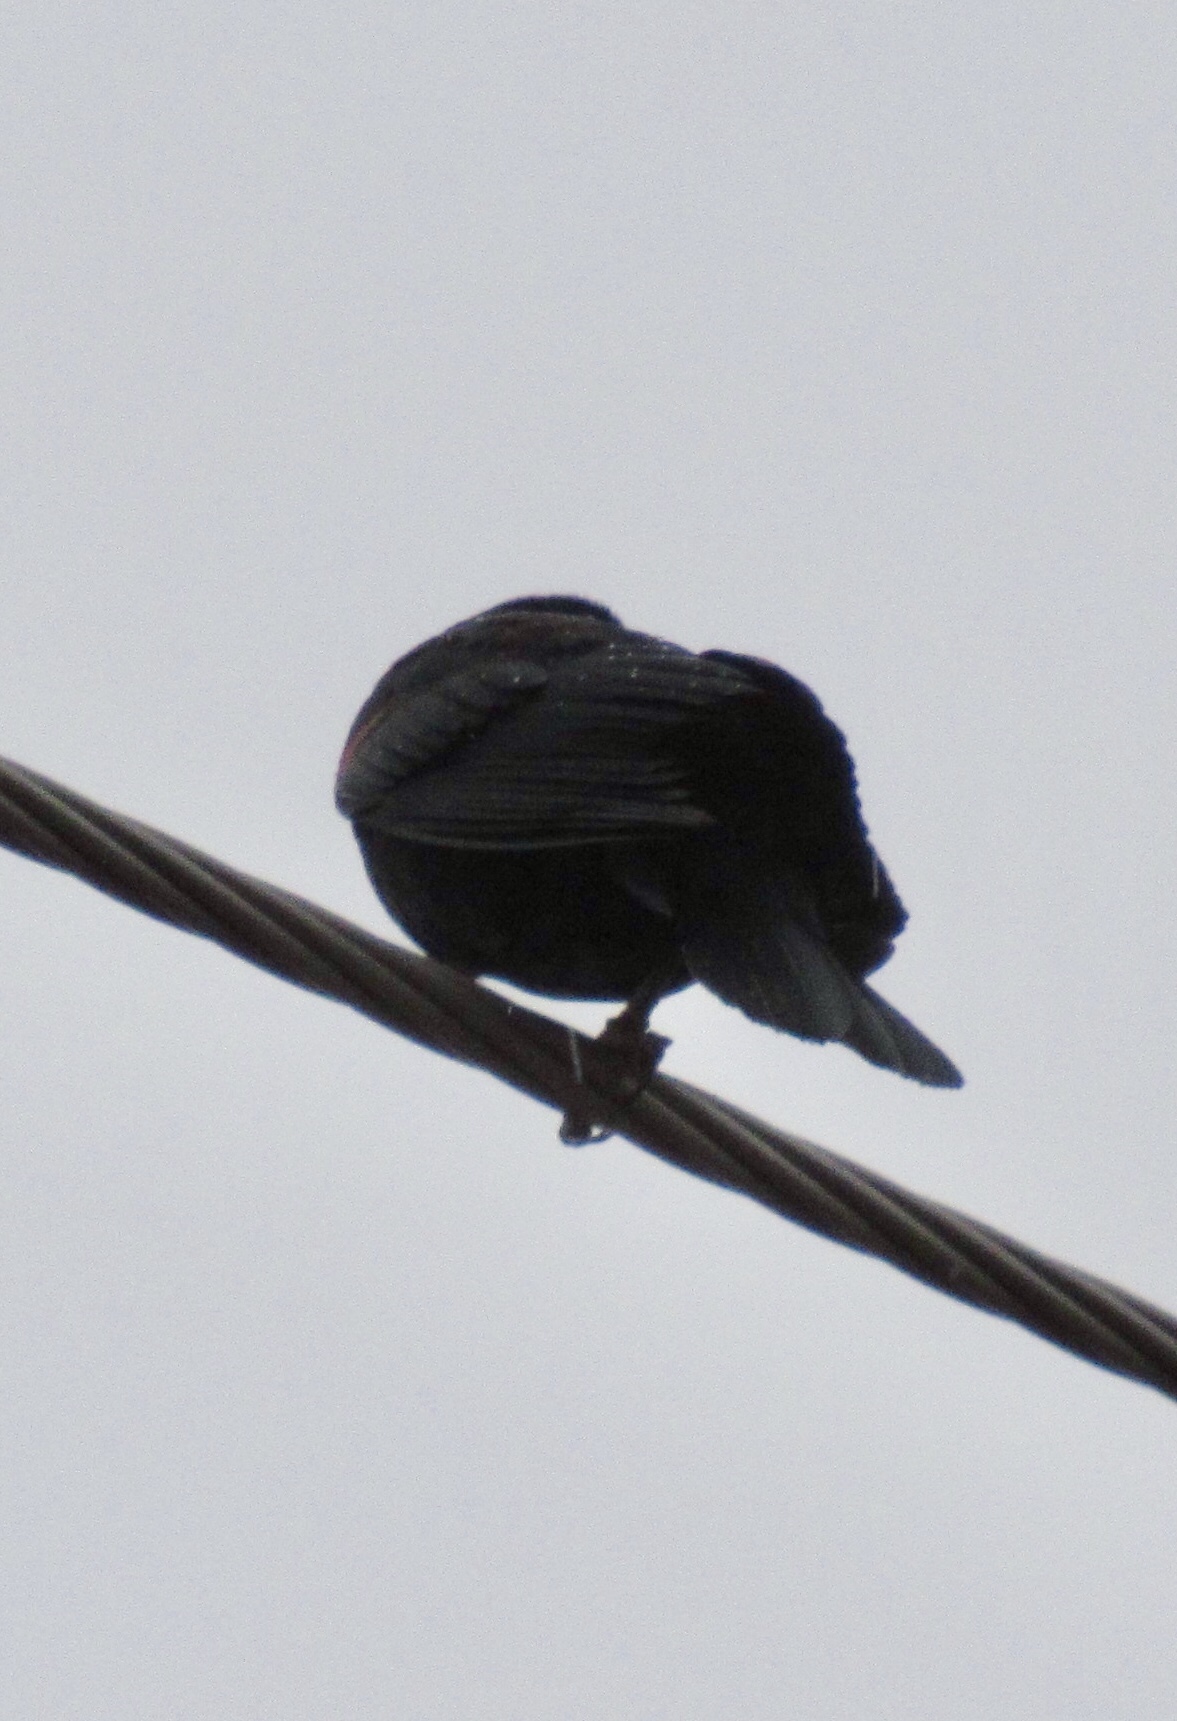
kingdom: Animalia
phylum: Chordata
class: Aves
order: Passeriformes
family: Icteridae
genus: Agelaius
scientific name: Agelaius phoeniceus
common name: Red-winged blackbird
